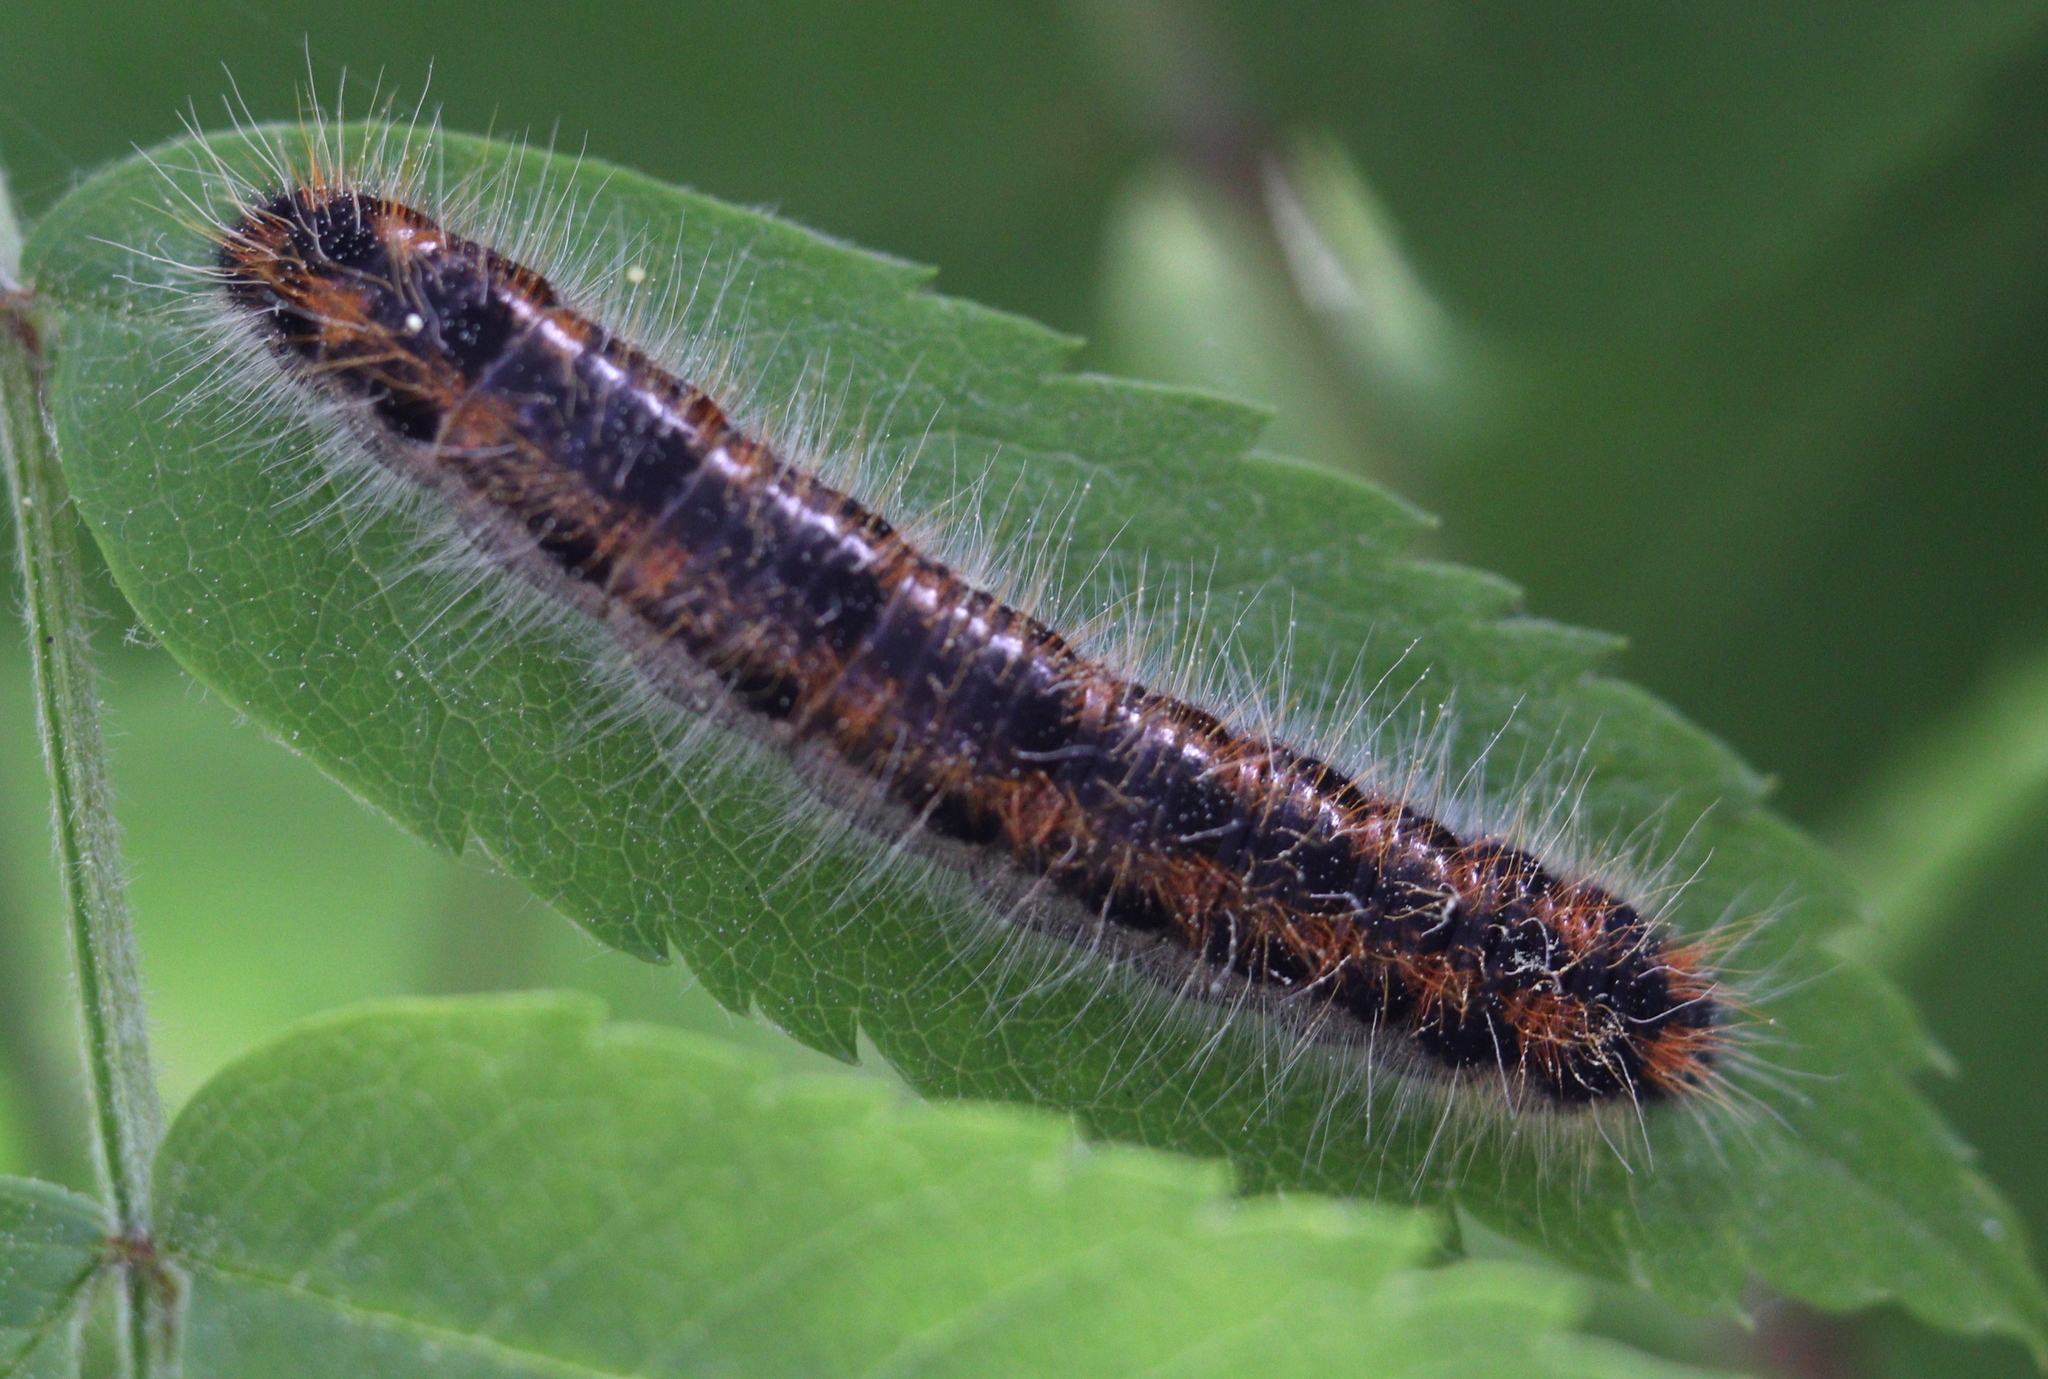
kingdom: Animalia
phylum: Arthropoda
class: Insecta
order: Lepidoptera
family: Pieridae
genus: Aporia
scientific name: Aporia crataegi
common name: Black-veined white
